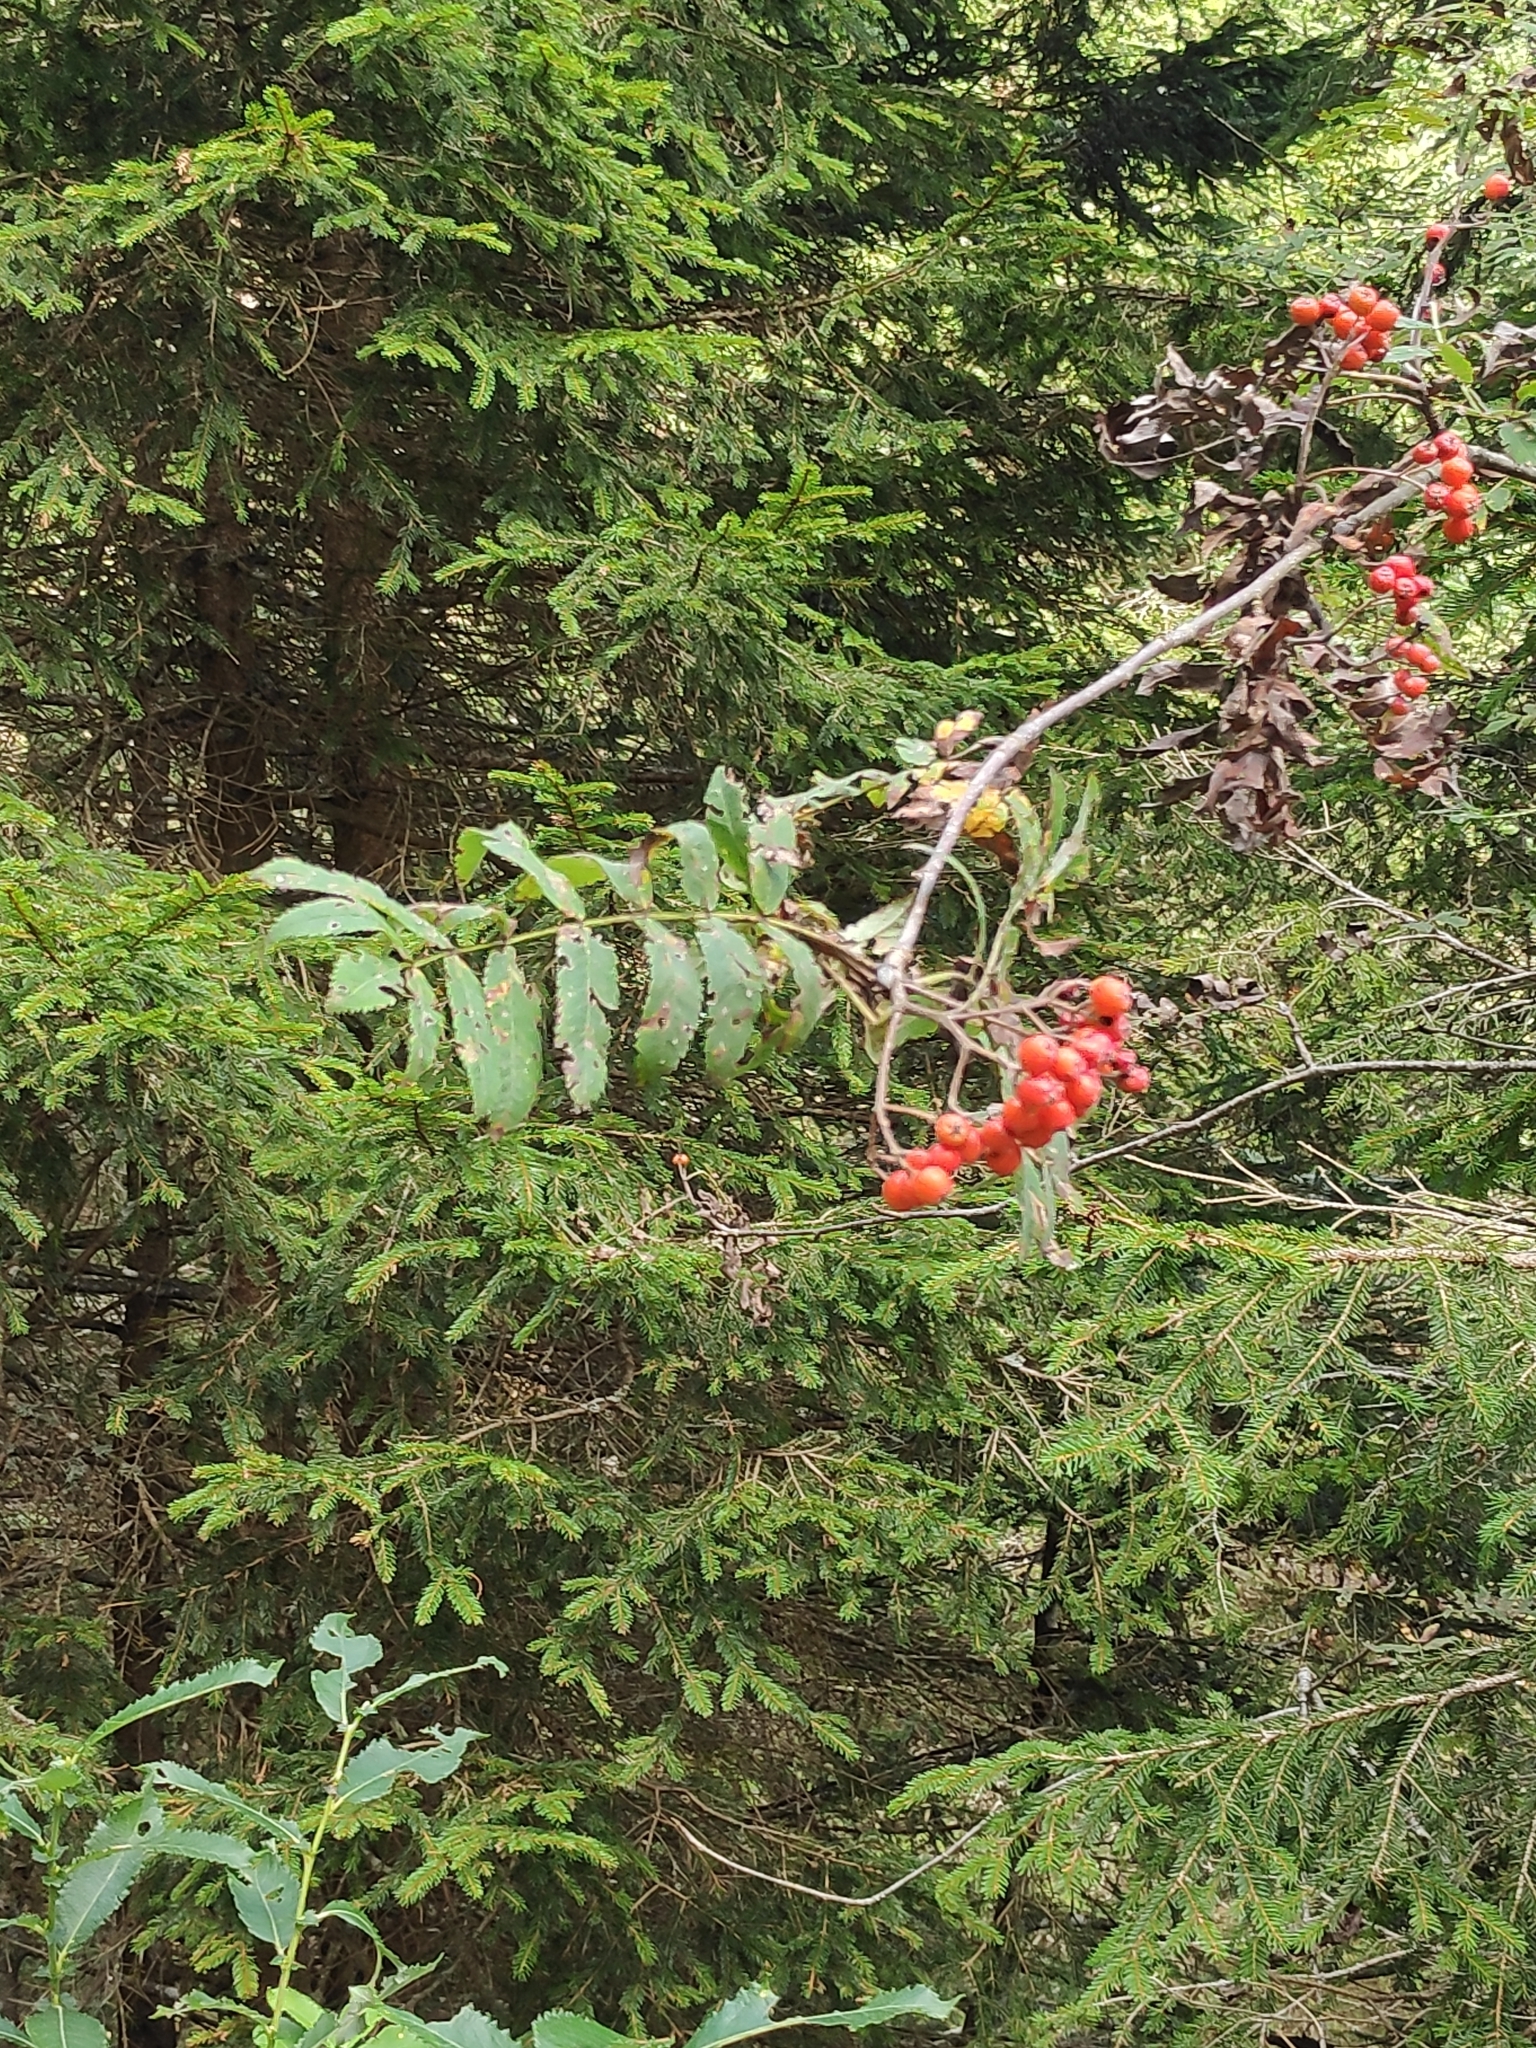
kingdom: Plantae
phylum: Tracheophyta
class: Magnoliopsida
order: Rosales
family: Rosaceae
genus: Sorbus
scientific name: Sorbus aucuparia
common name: Rowan
